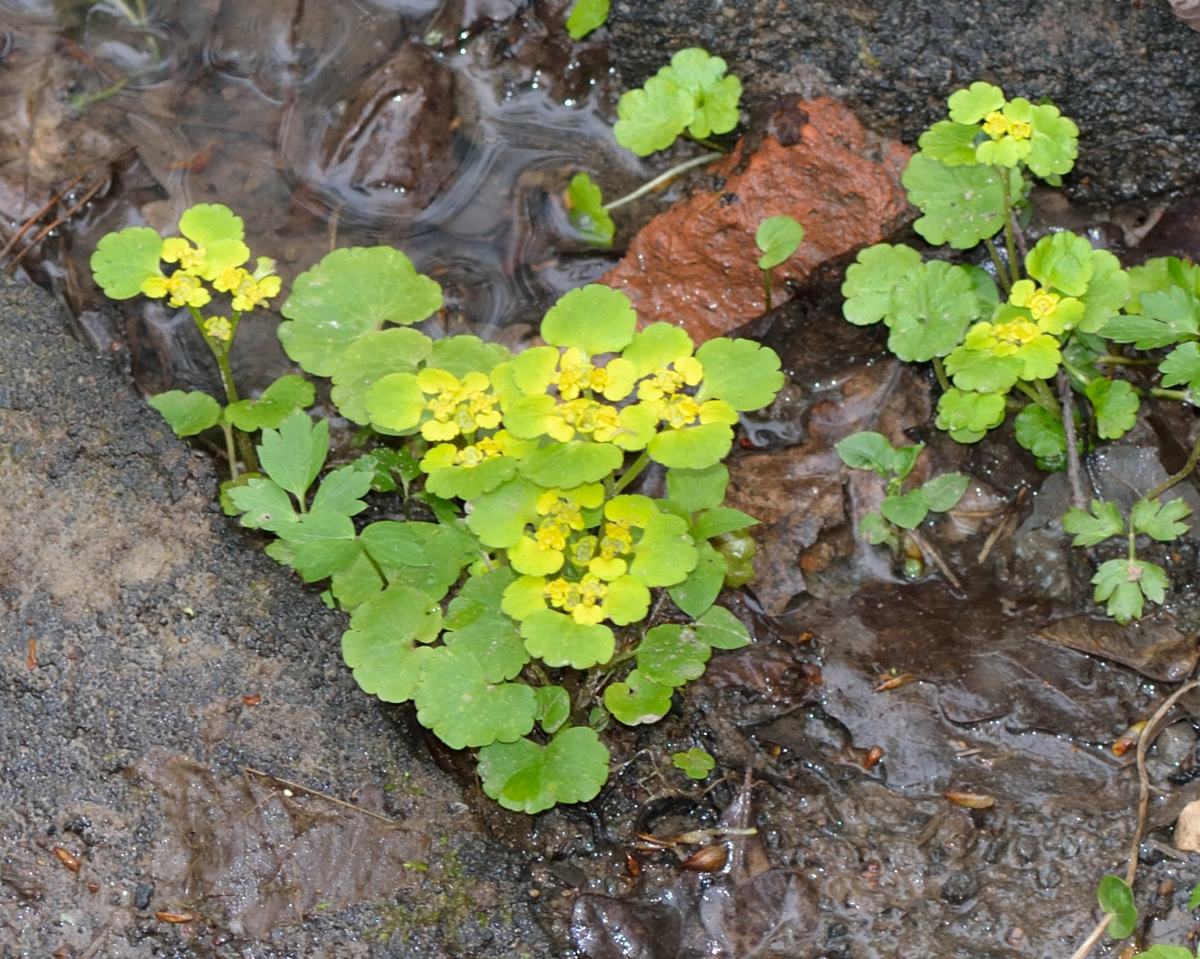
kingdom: Plantae
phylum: Tracheophyta
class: Magnoliopsida
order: Saxifragales
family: Saxifragaceae
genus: Chrysosplenium
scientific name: Chrysosplenium alternifolium
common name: Alternate-leaved golden-saxifrage
